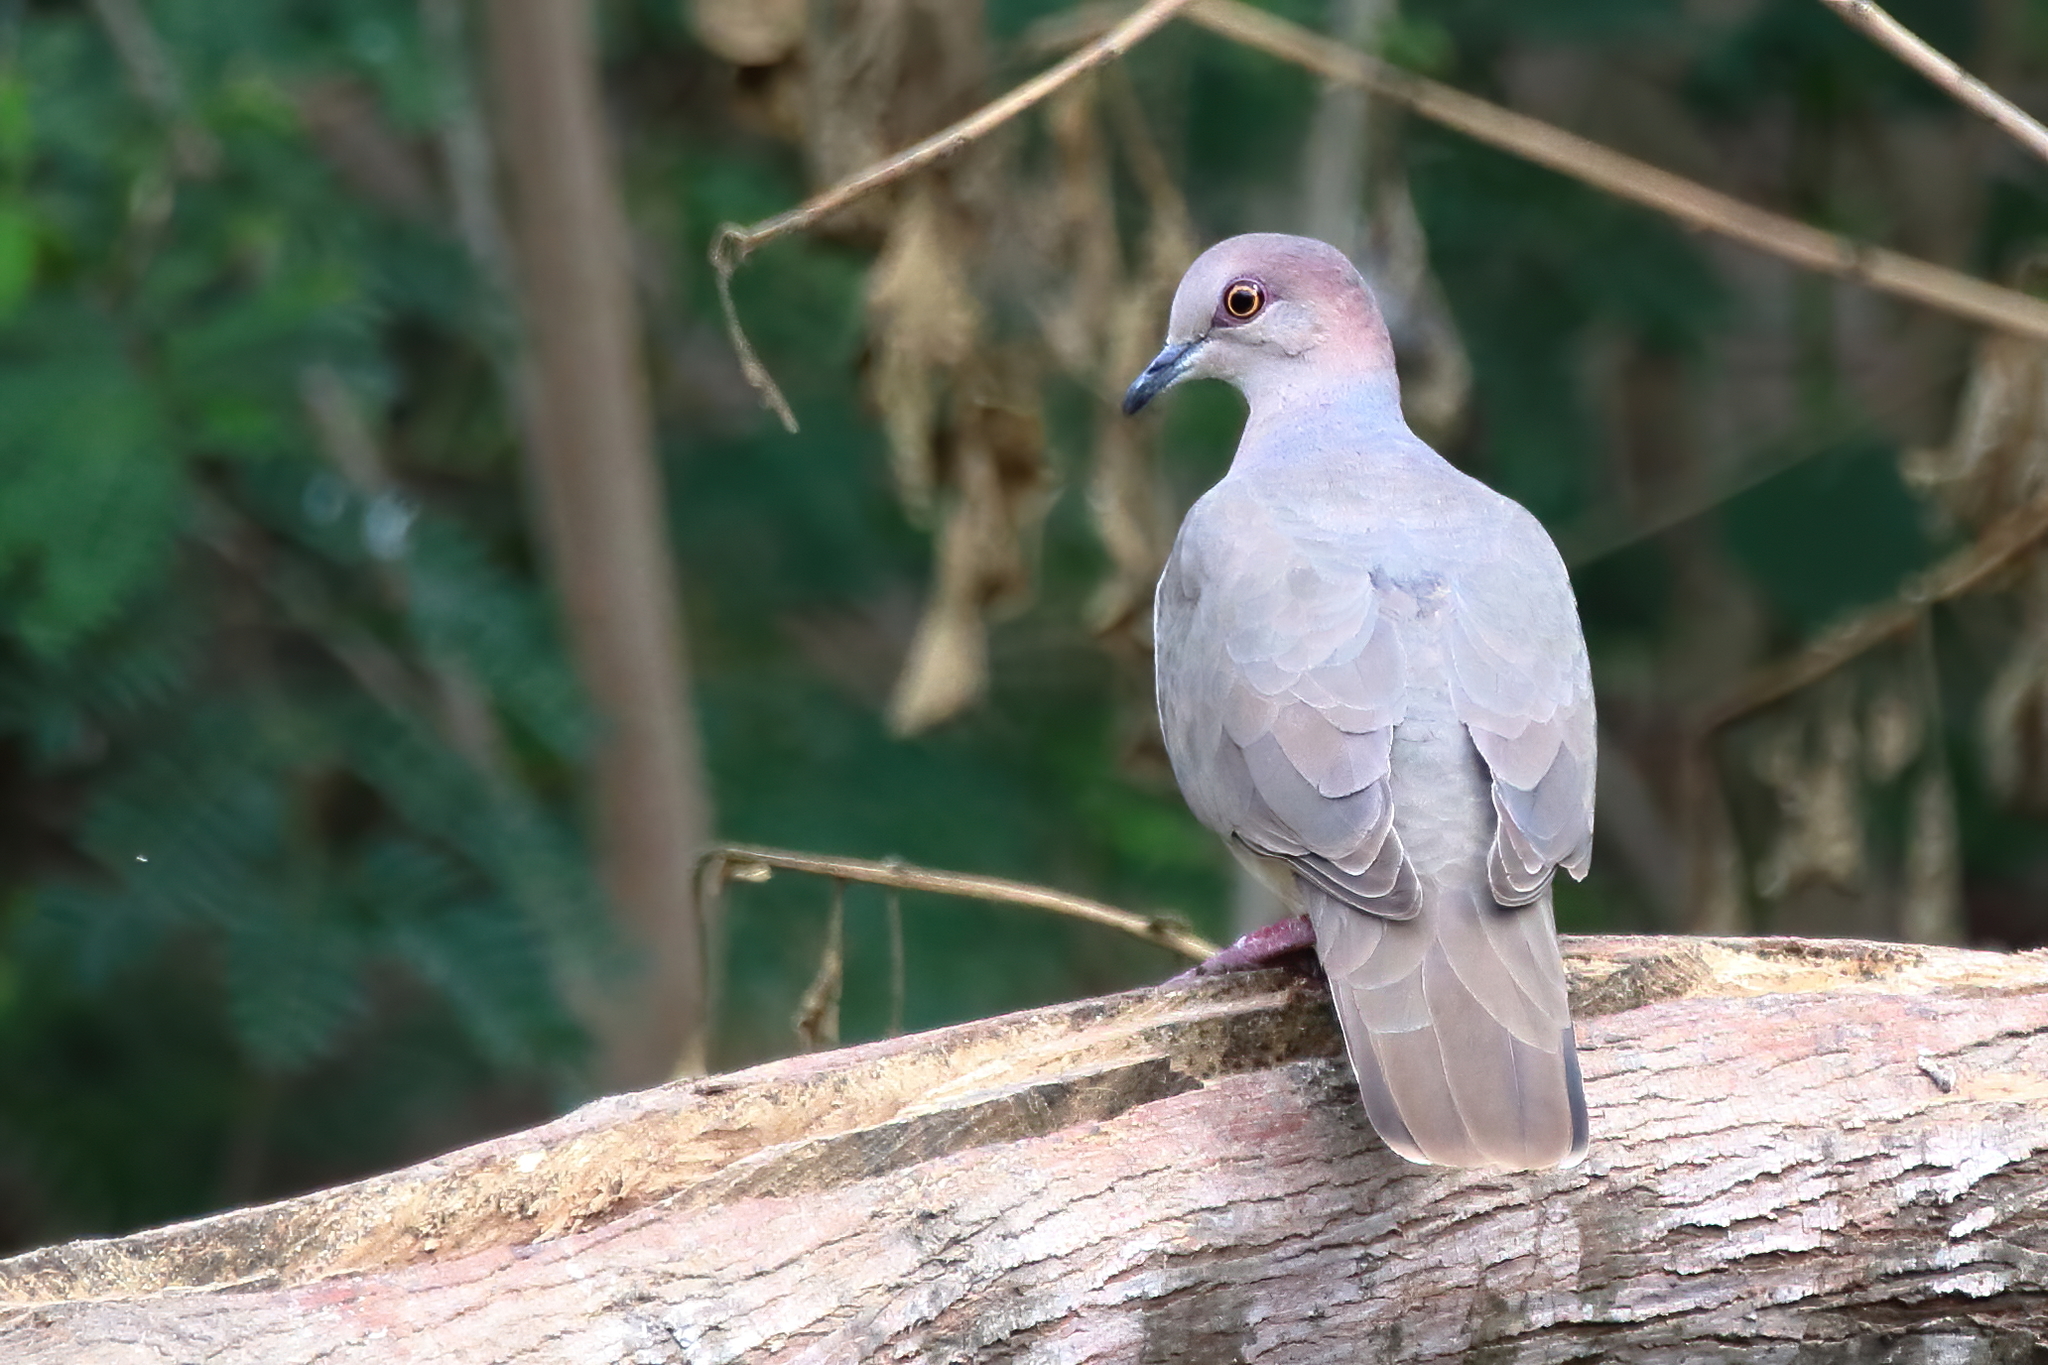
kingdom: Animalia
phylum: Chordata
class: Aves
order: Columbiformes
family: Columbidae
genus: Leptotila
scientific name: Leptotila verreauxi
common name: White-tipped dove
